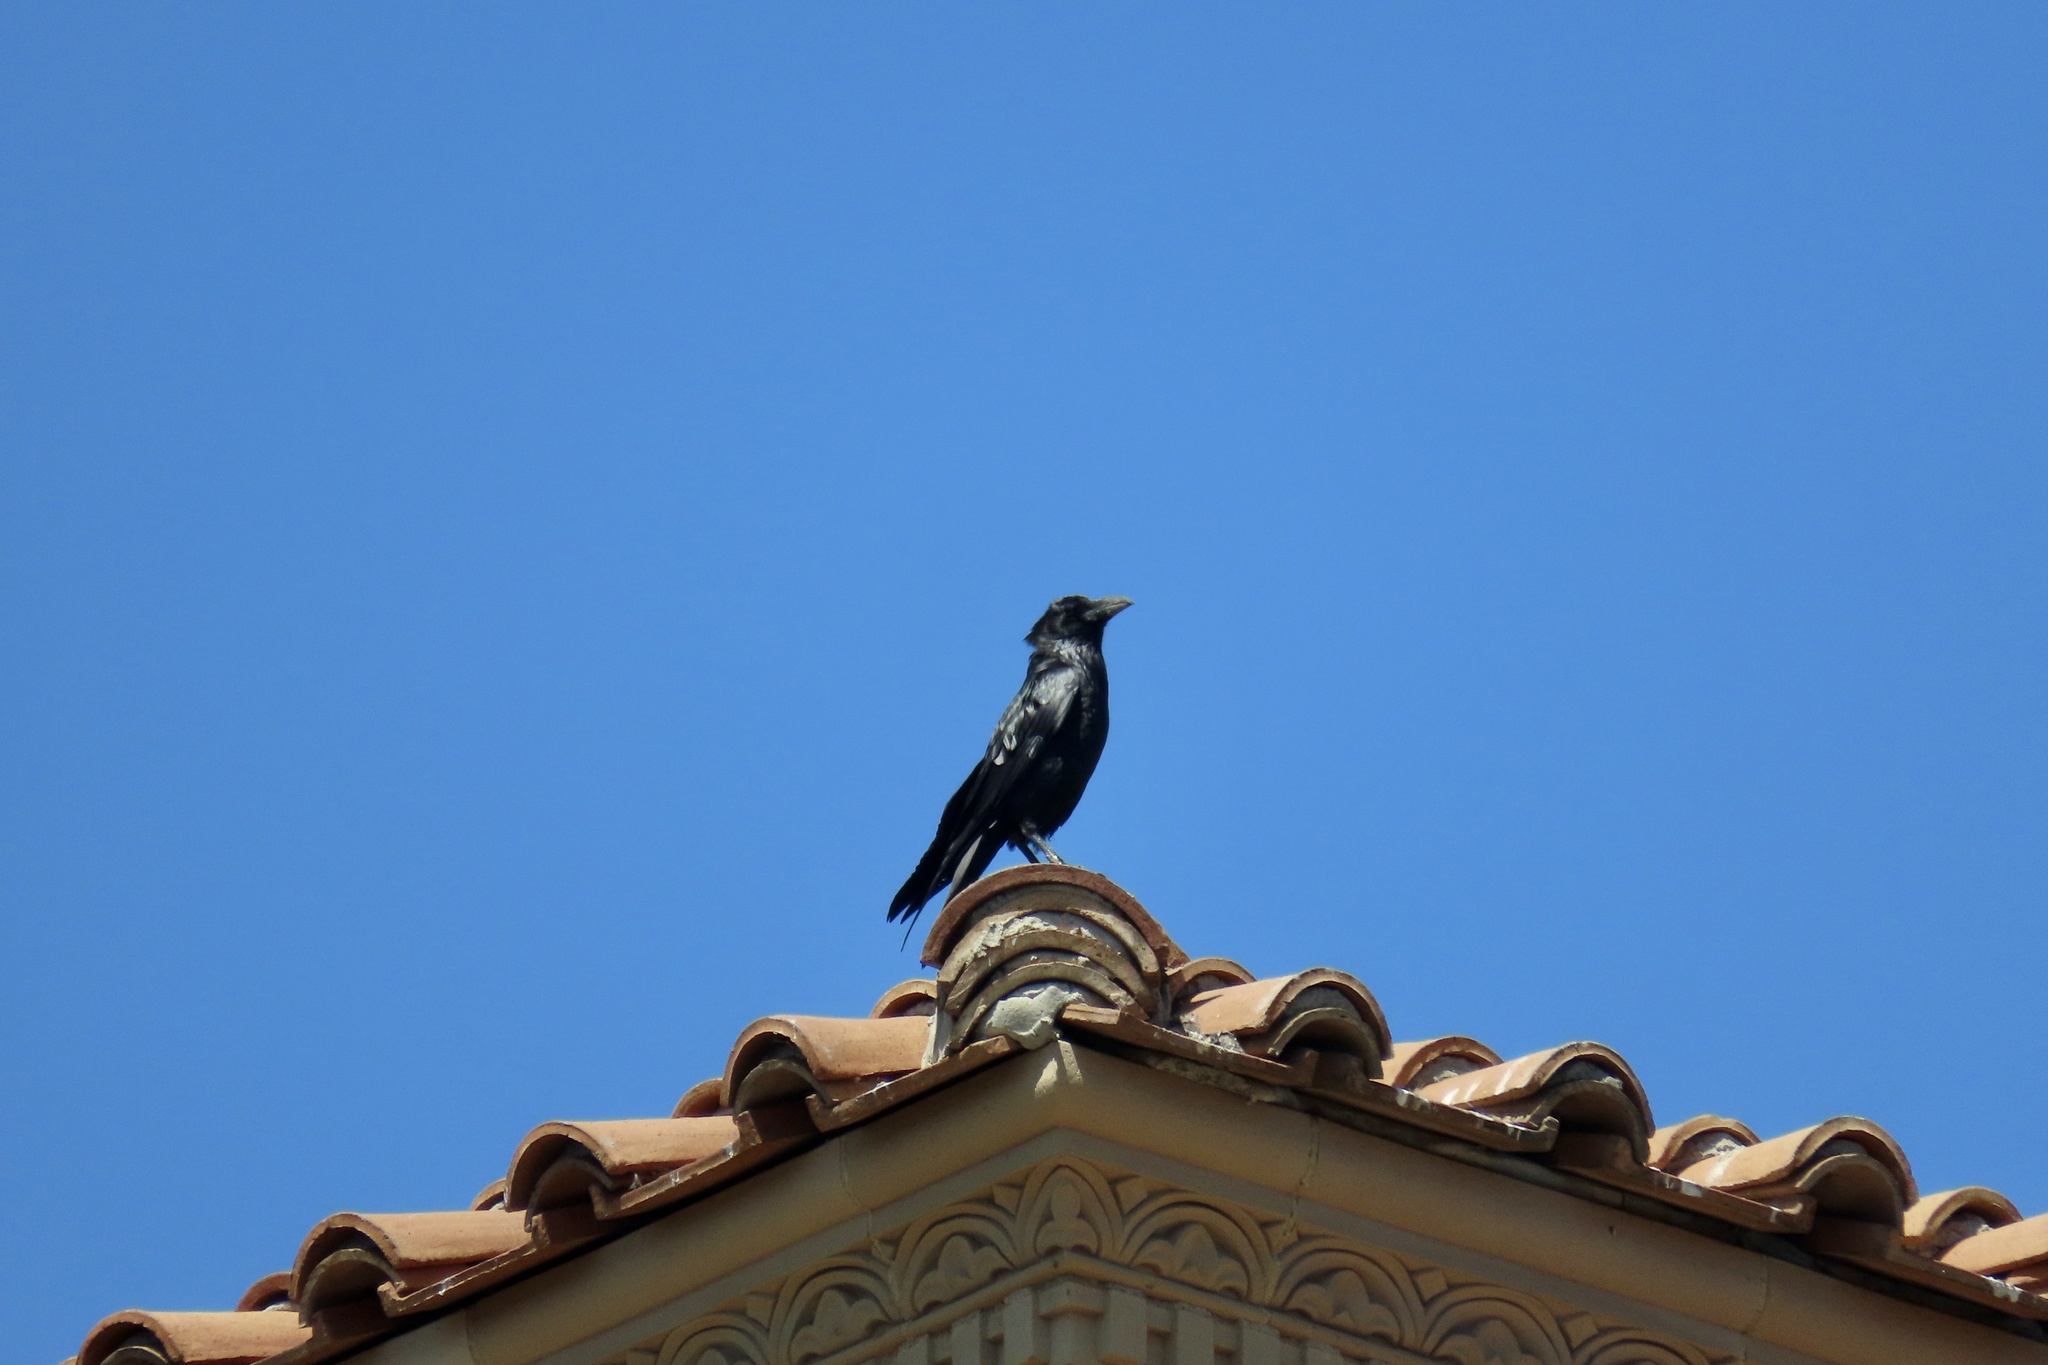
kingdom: Animalia
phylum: Chordata
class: Aves
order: Passeriformes
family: Corvidae
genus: Corvus
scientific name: Corvus corax
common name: Common raven
